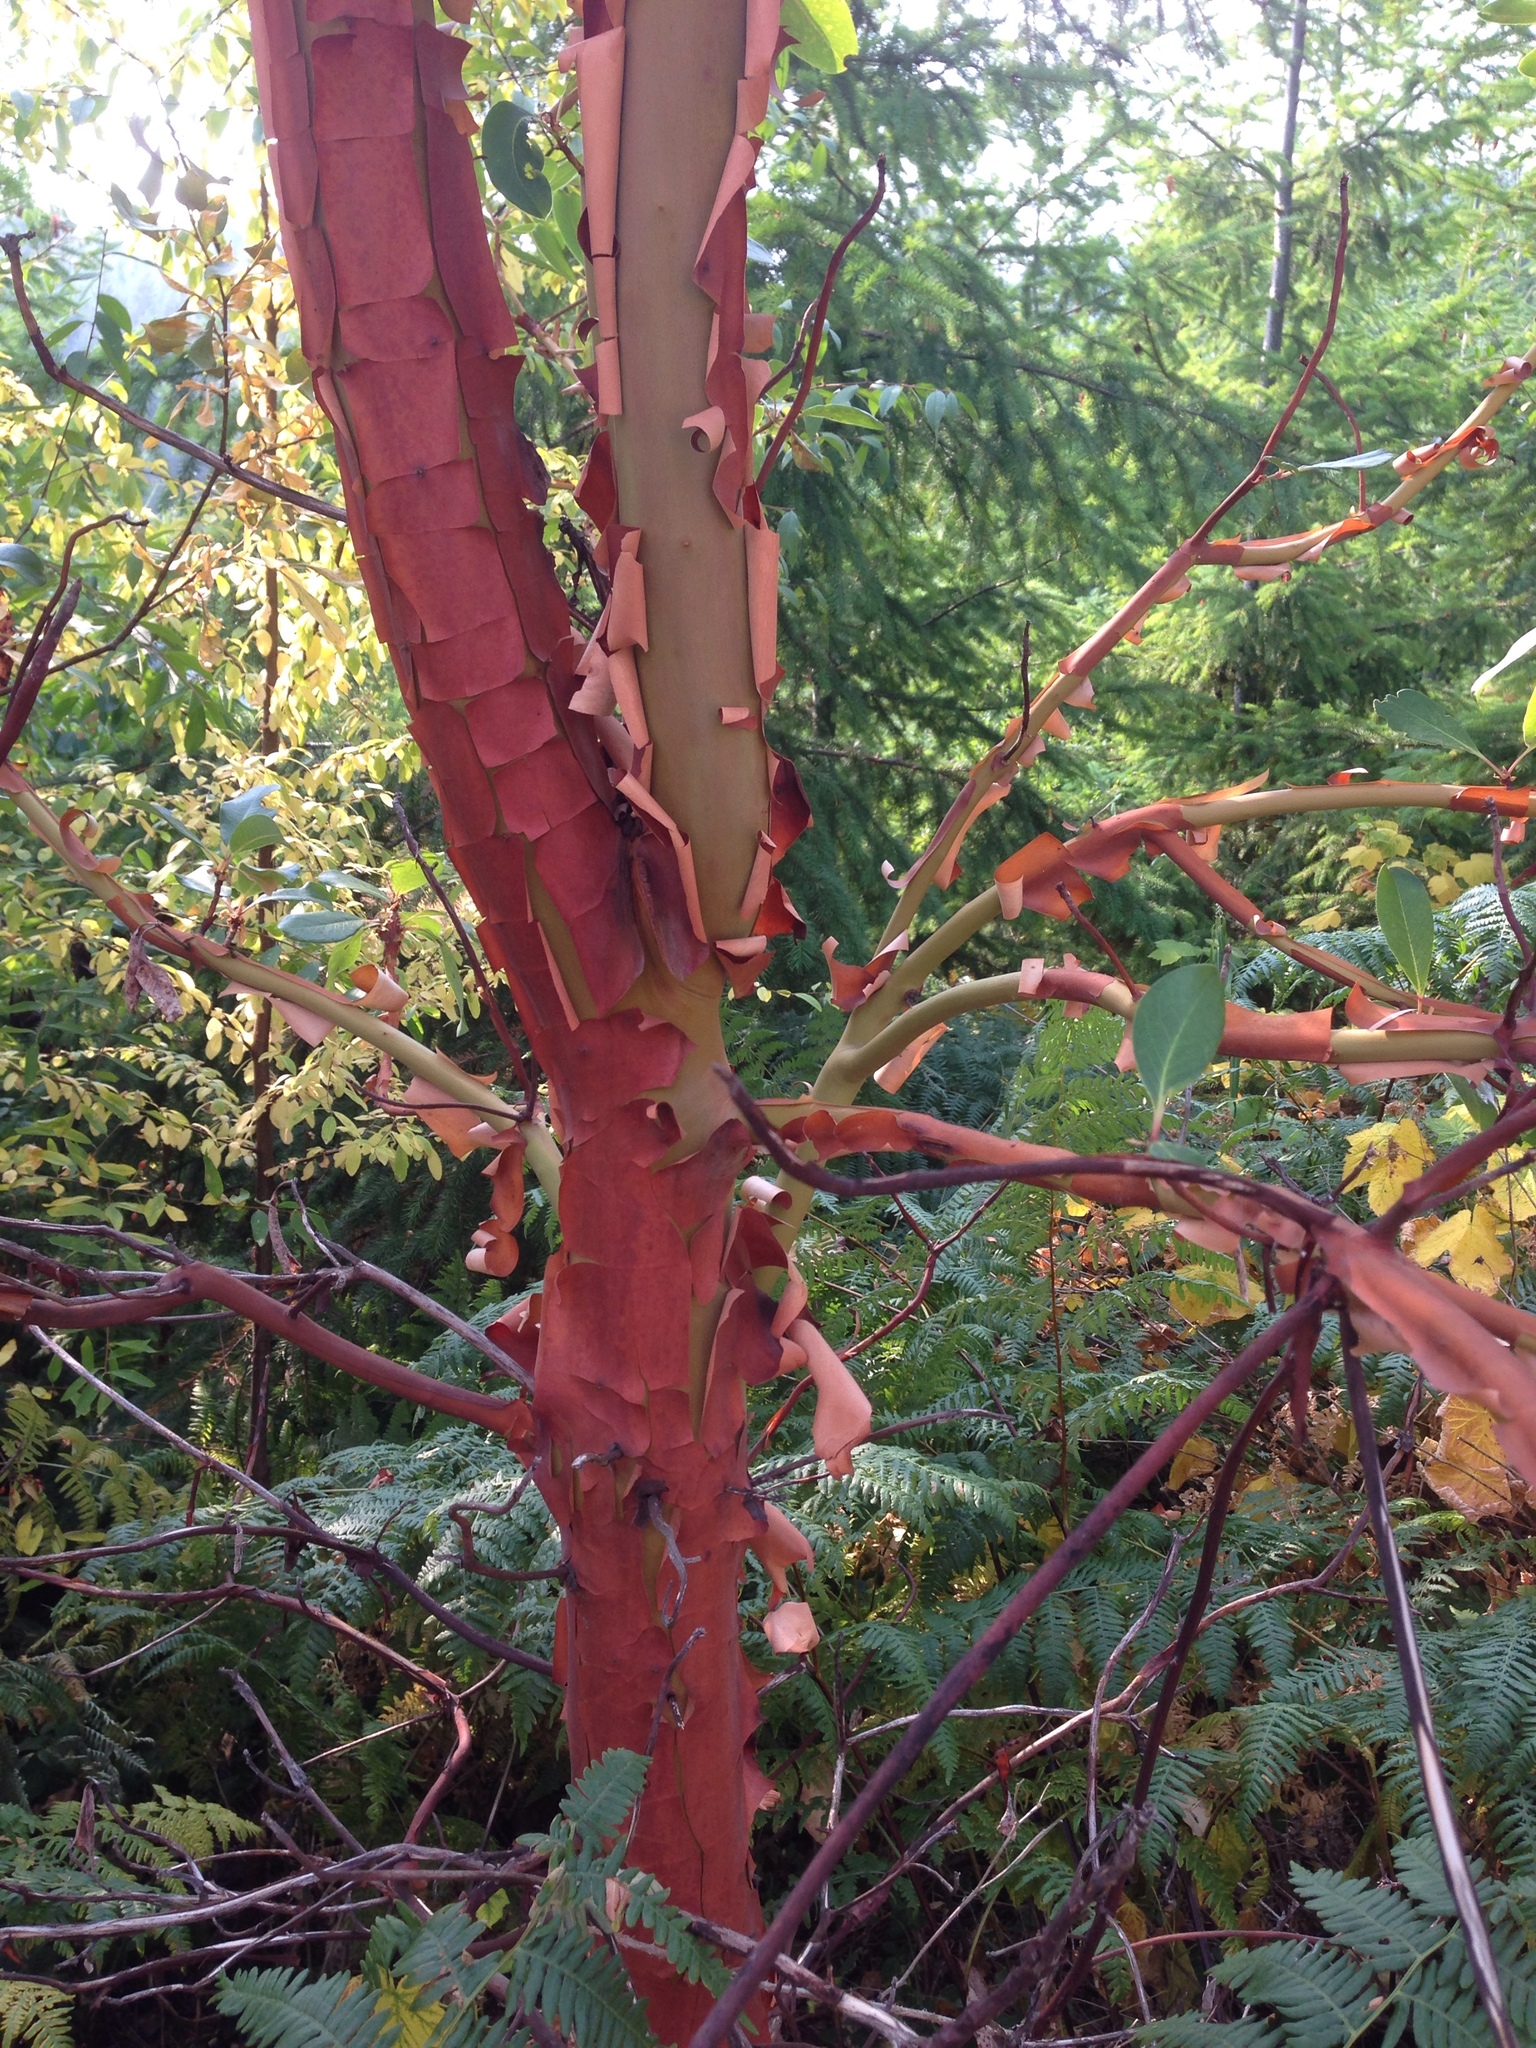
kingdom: Plantae
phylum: Tracheophyta
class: Magnoliopsida
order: Ericales
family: Ericaceae
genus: Arbutus
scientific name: Arbutus menziesii
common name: Pacific madrone
